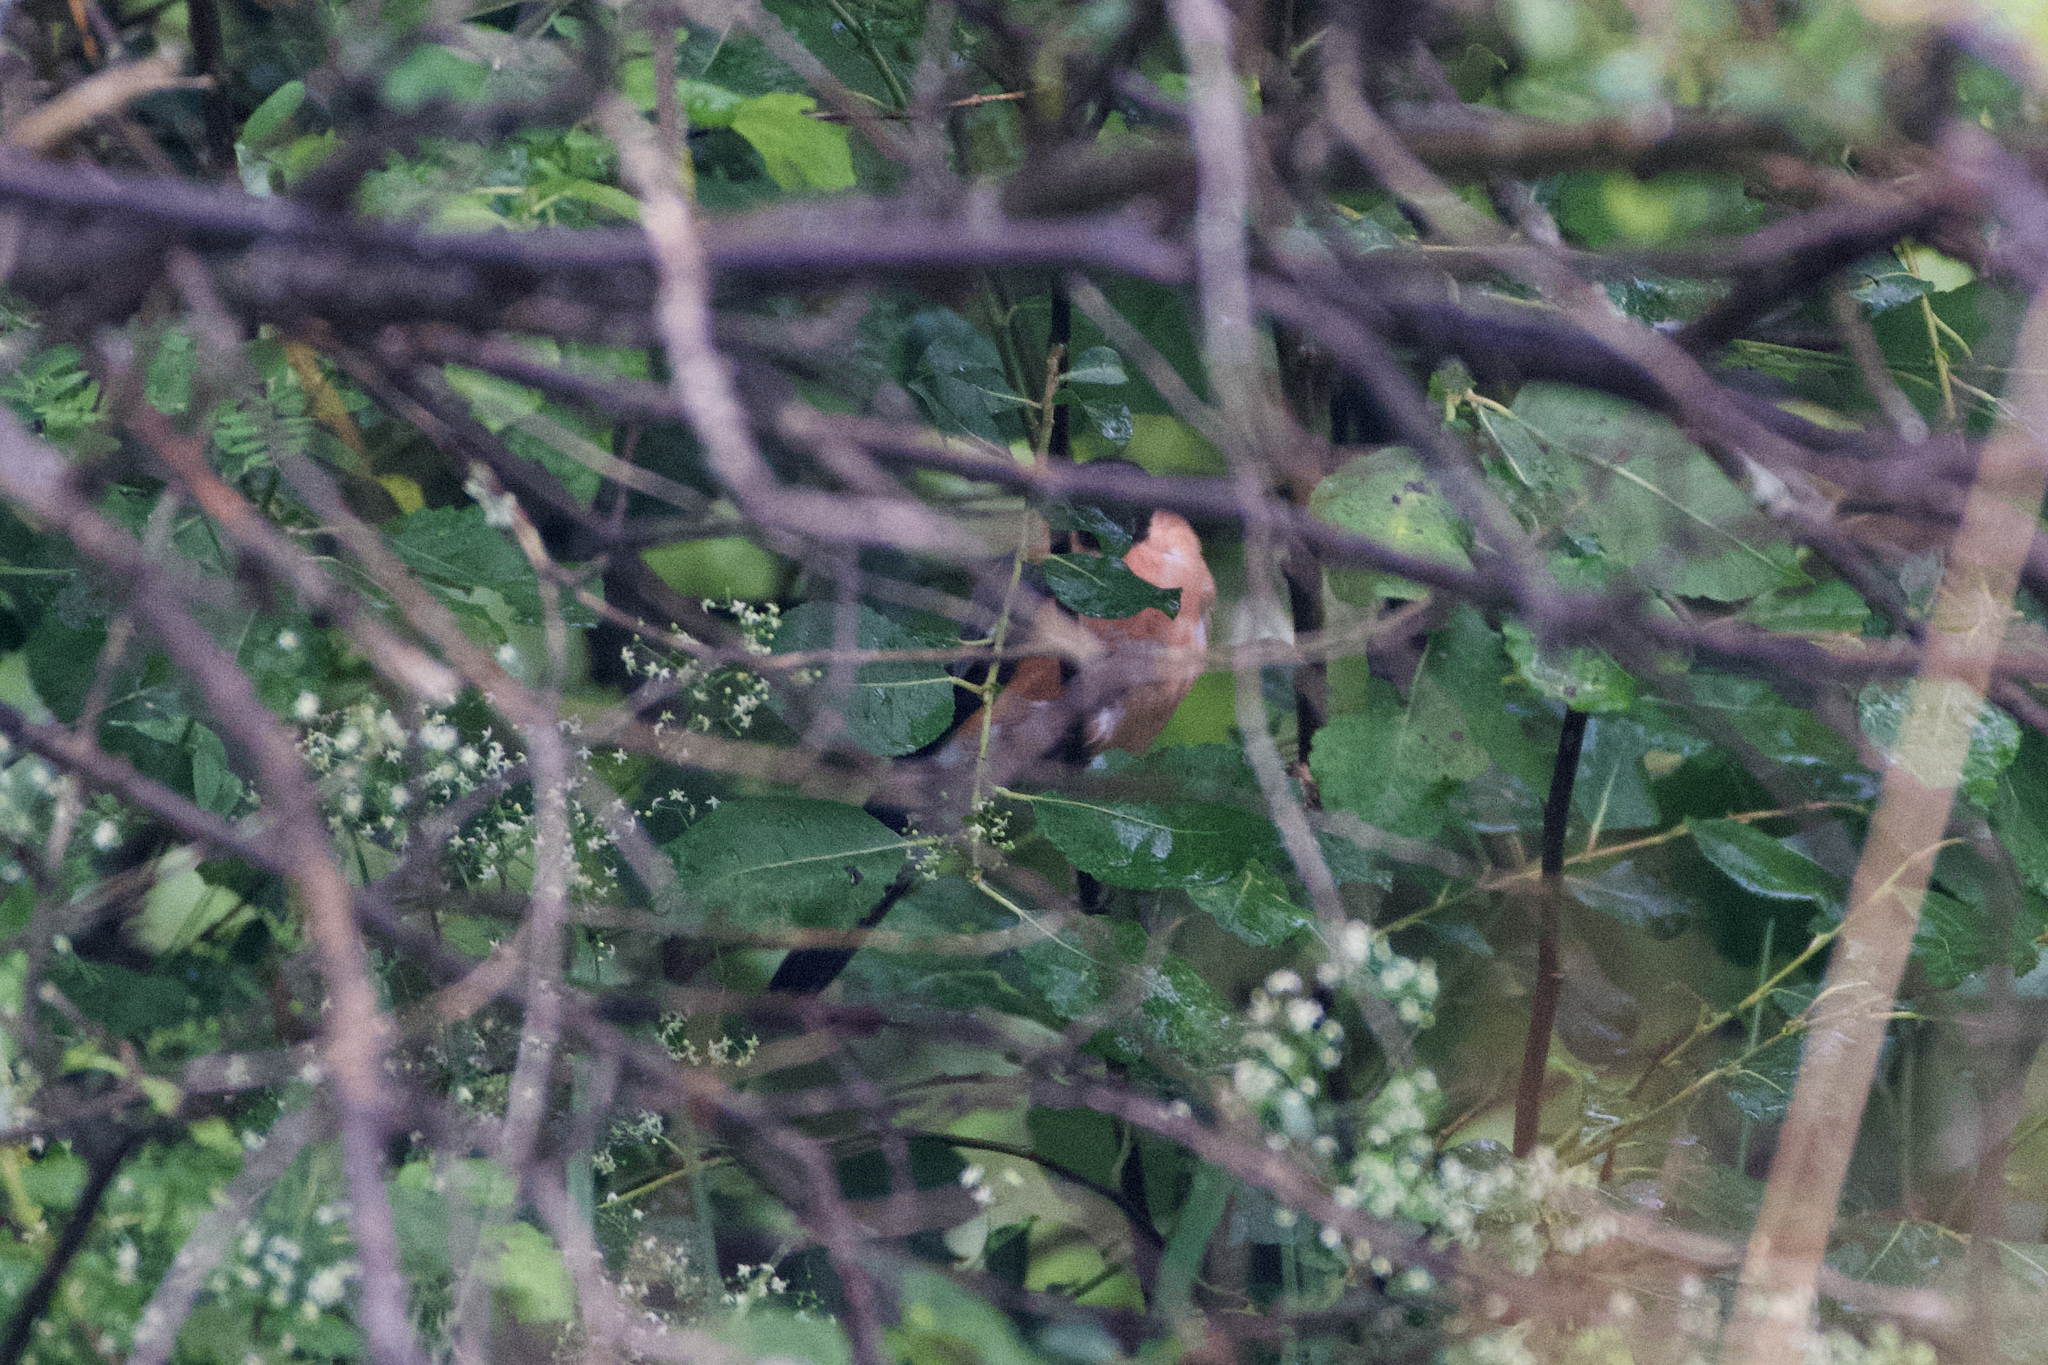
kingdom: Animalia
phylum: Chordata
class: Aves
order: Passeriformes
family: Fringillidae
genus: Pyrrhula
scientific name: Pyrrhula pyrrhula
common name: Eurasian bullfinch
